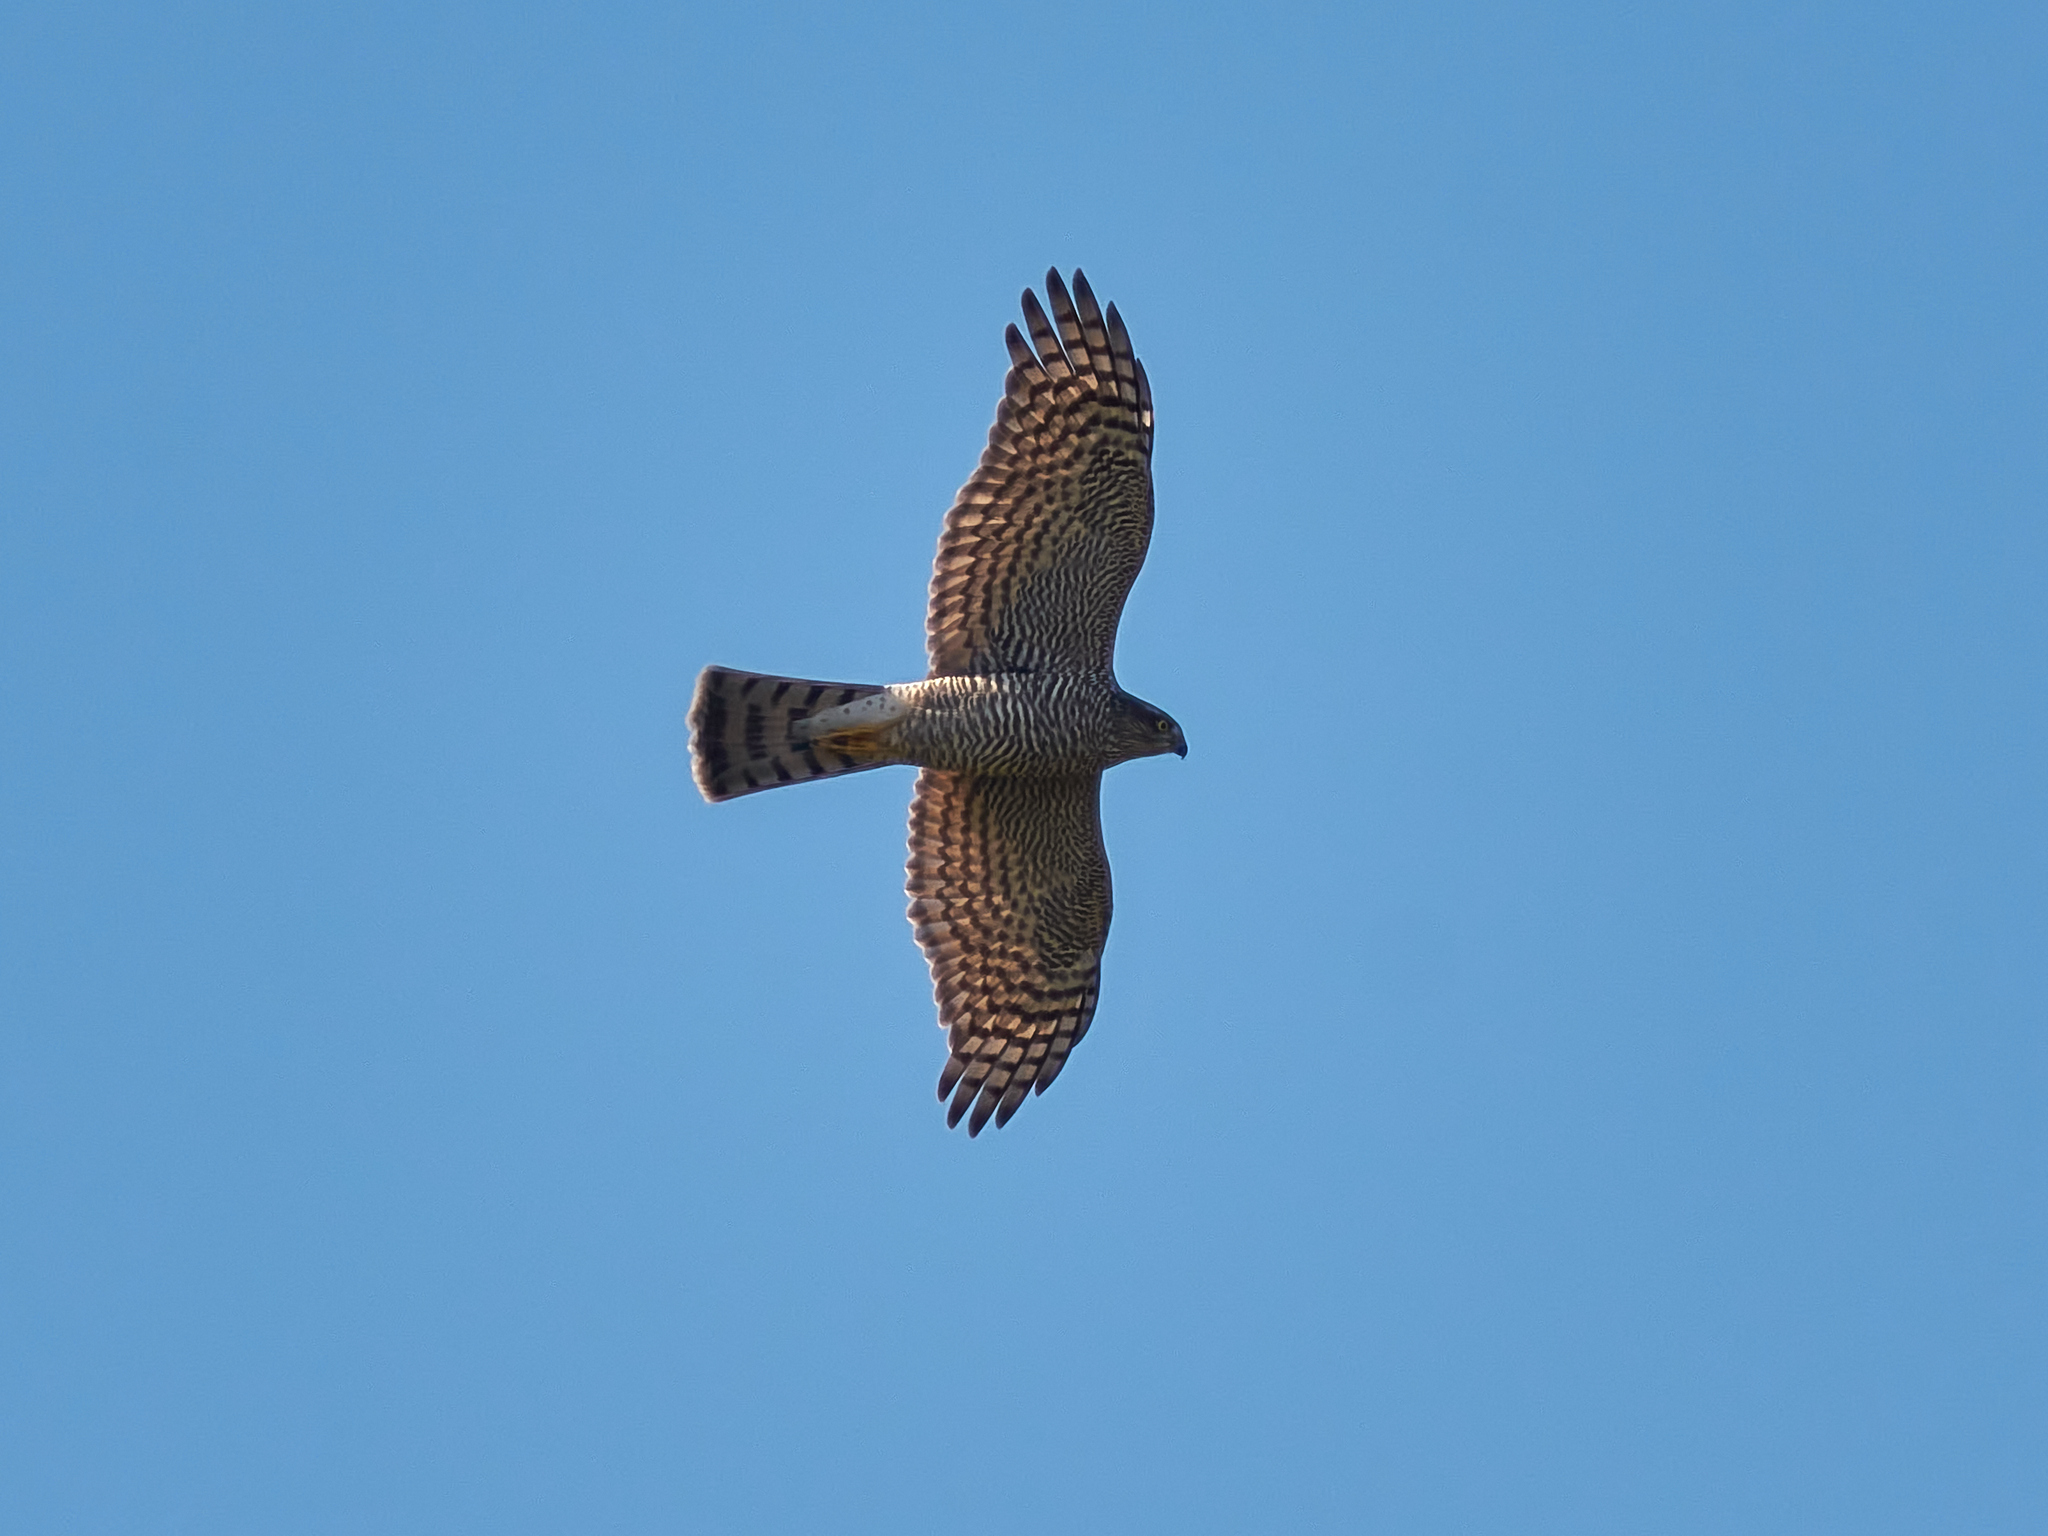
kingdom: Animalia
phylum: Chordata
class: Aves
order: Accipitriformes
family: Accipitridae
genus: Accipiter
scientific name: Accipiter nisus
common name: Eurasian sparrowhawk
